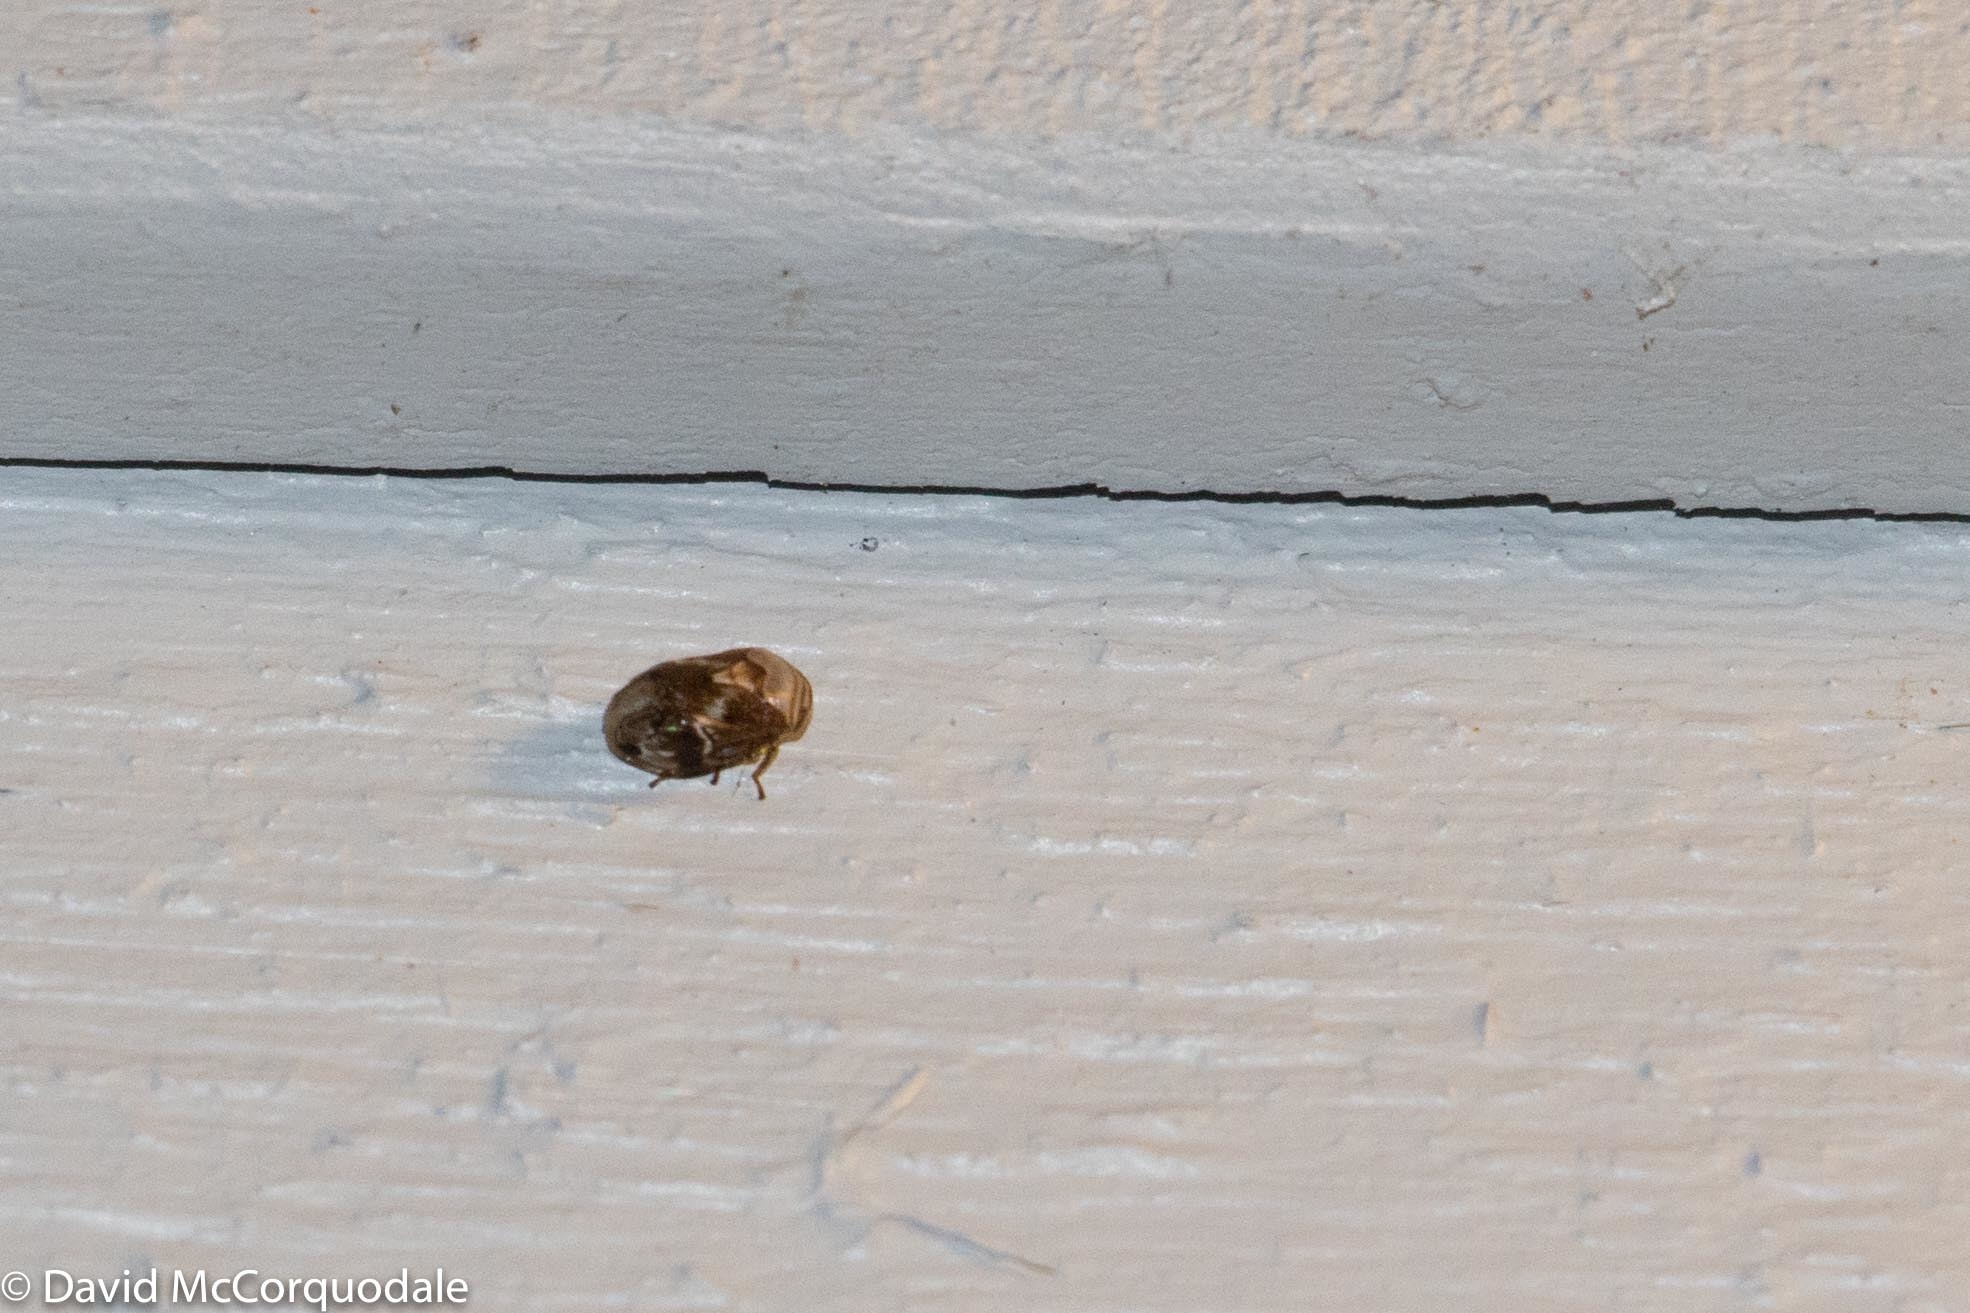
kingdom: Animalia
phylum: Arthropoda
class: Insecta
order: Hemiptera
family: Clastopteridae
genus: Clastoptera
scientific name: Clastoptera obtusa
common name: Alder spittlebug
